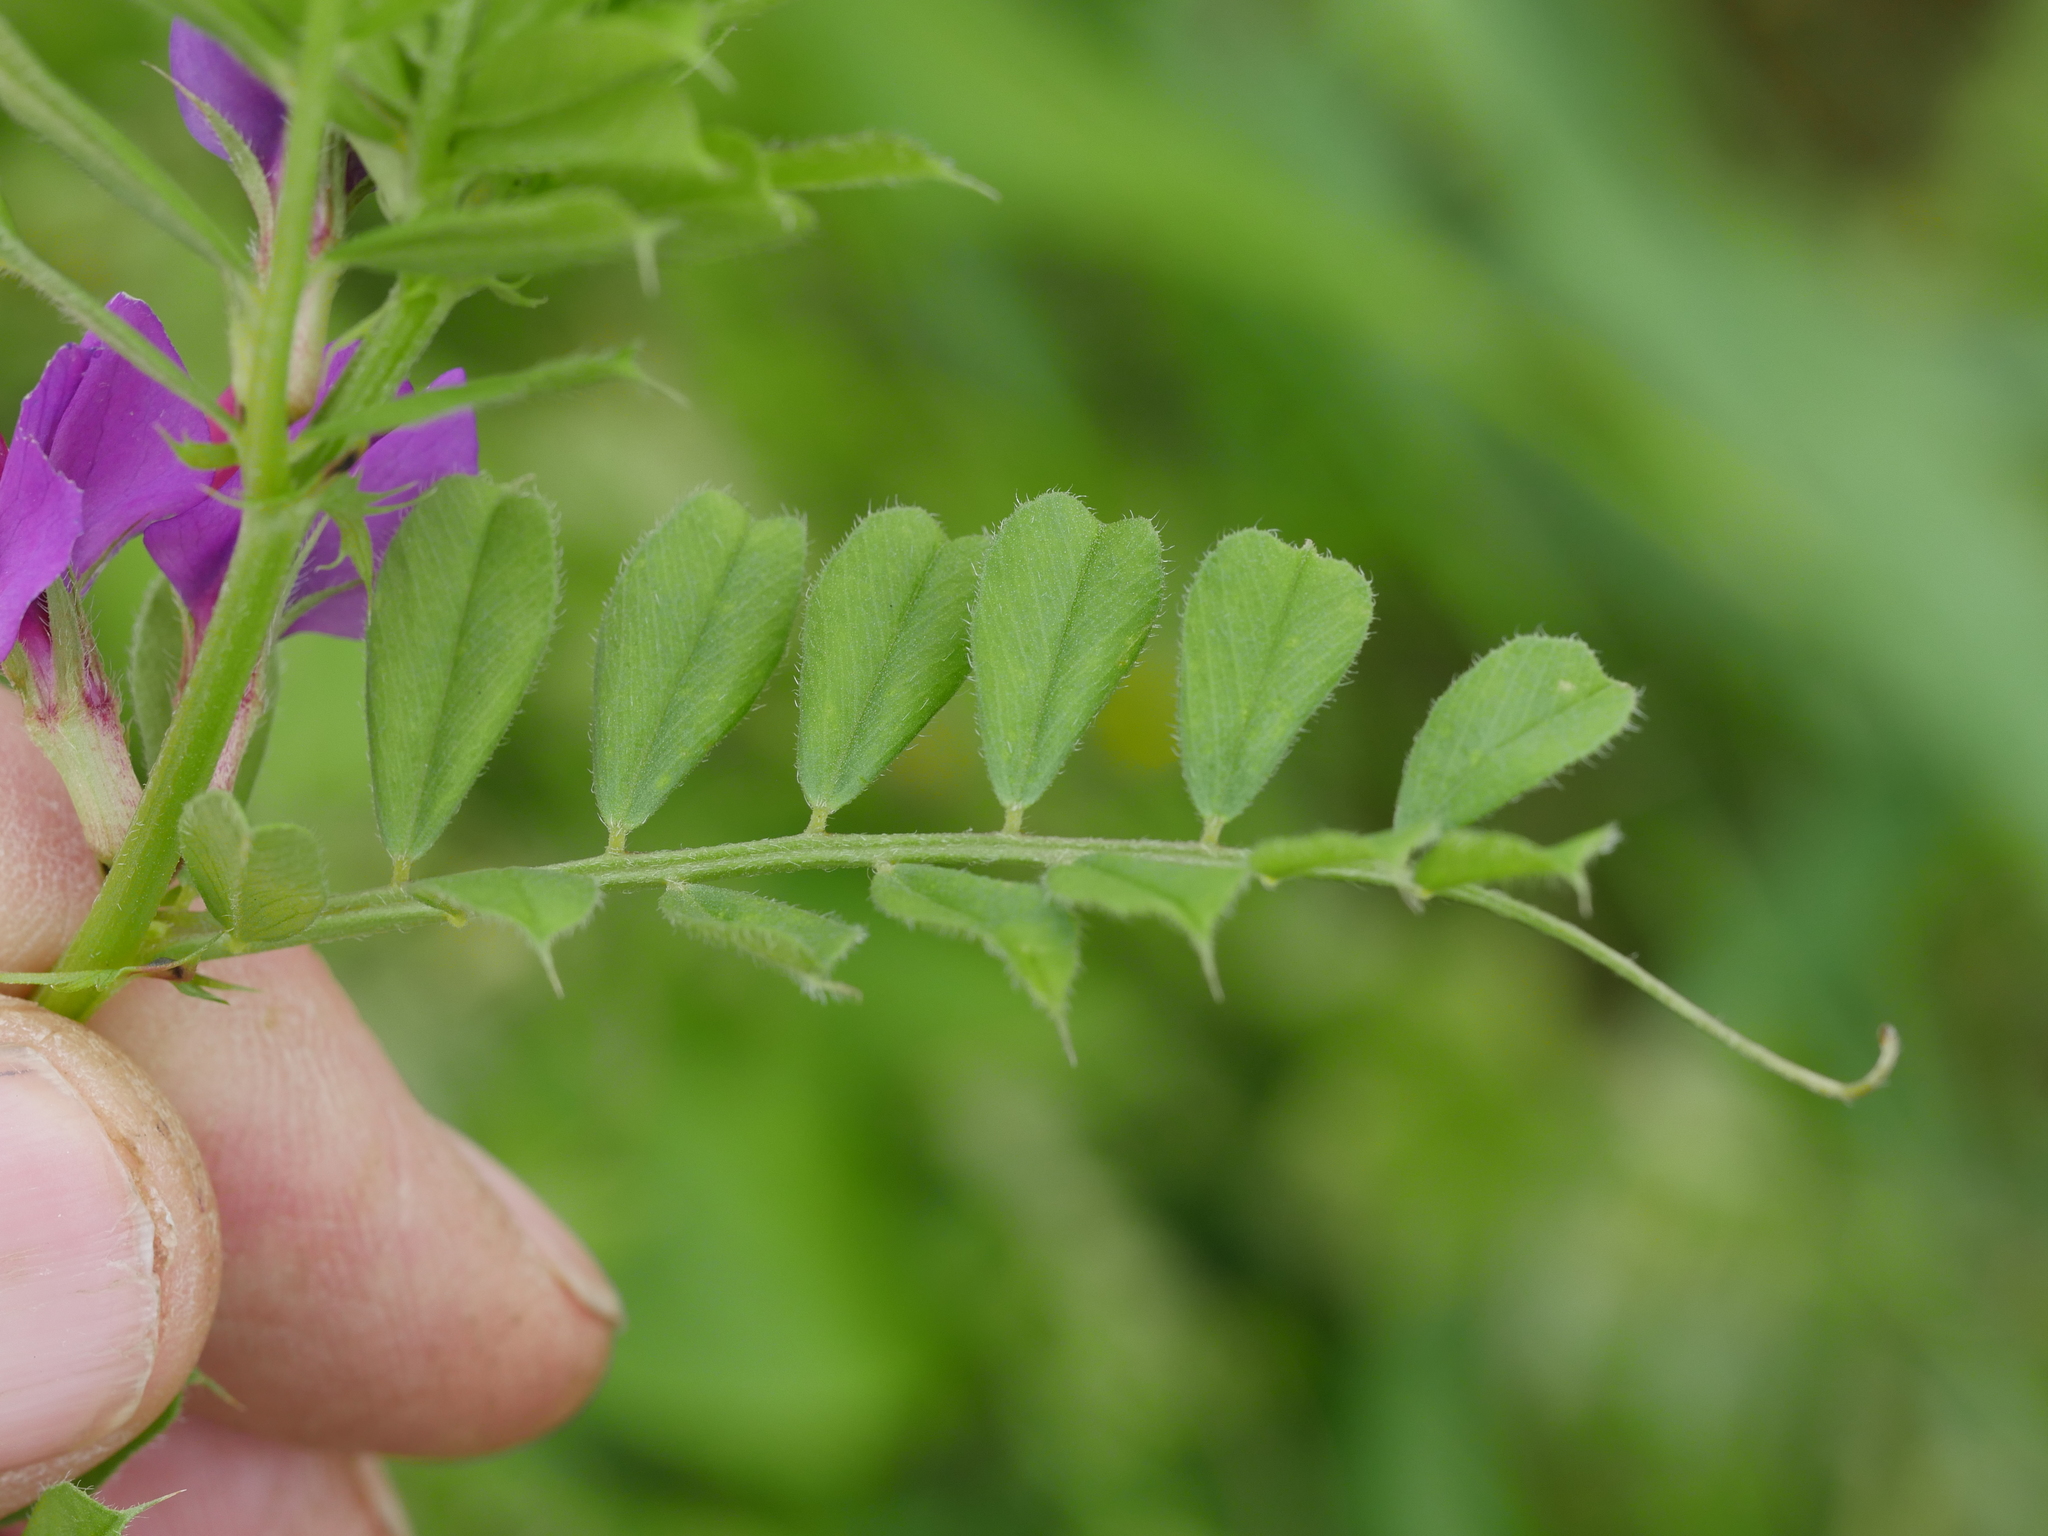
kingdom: Plantae
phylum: Tracheophyta
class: Magnoliopsida
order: Fabales
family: Fabaceae
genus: Vicia
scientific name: Vicia sativa
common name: Garden vetch
